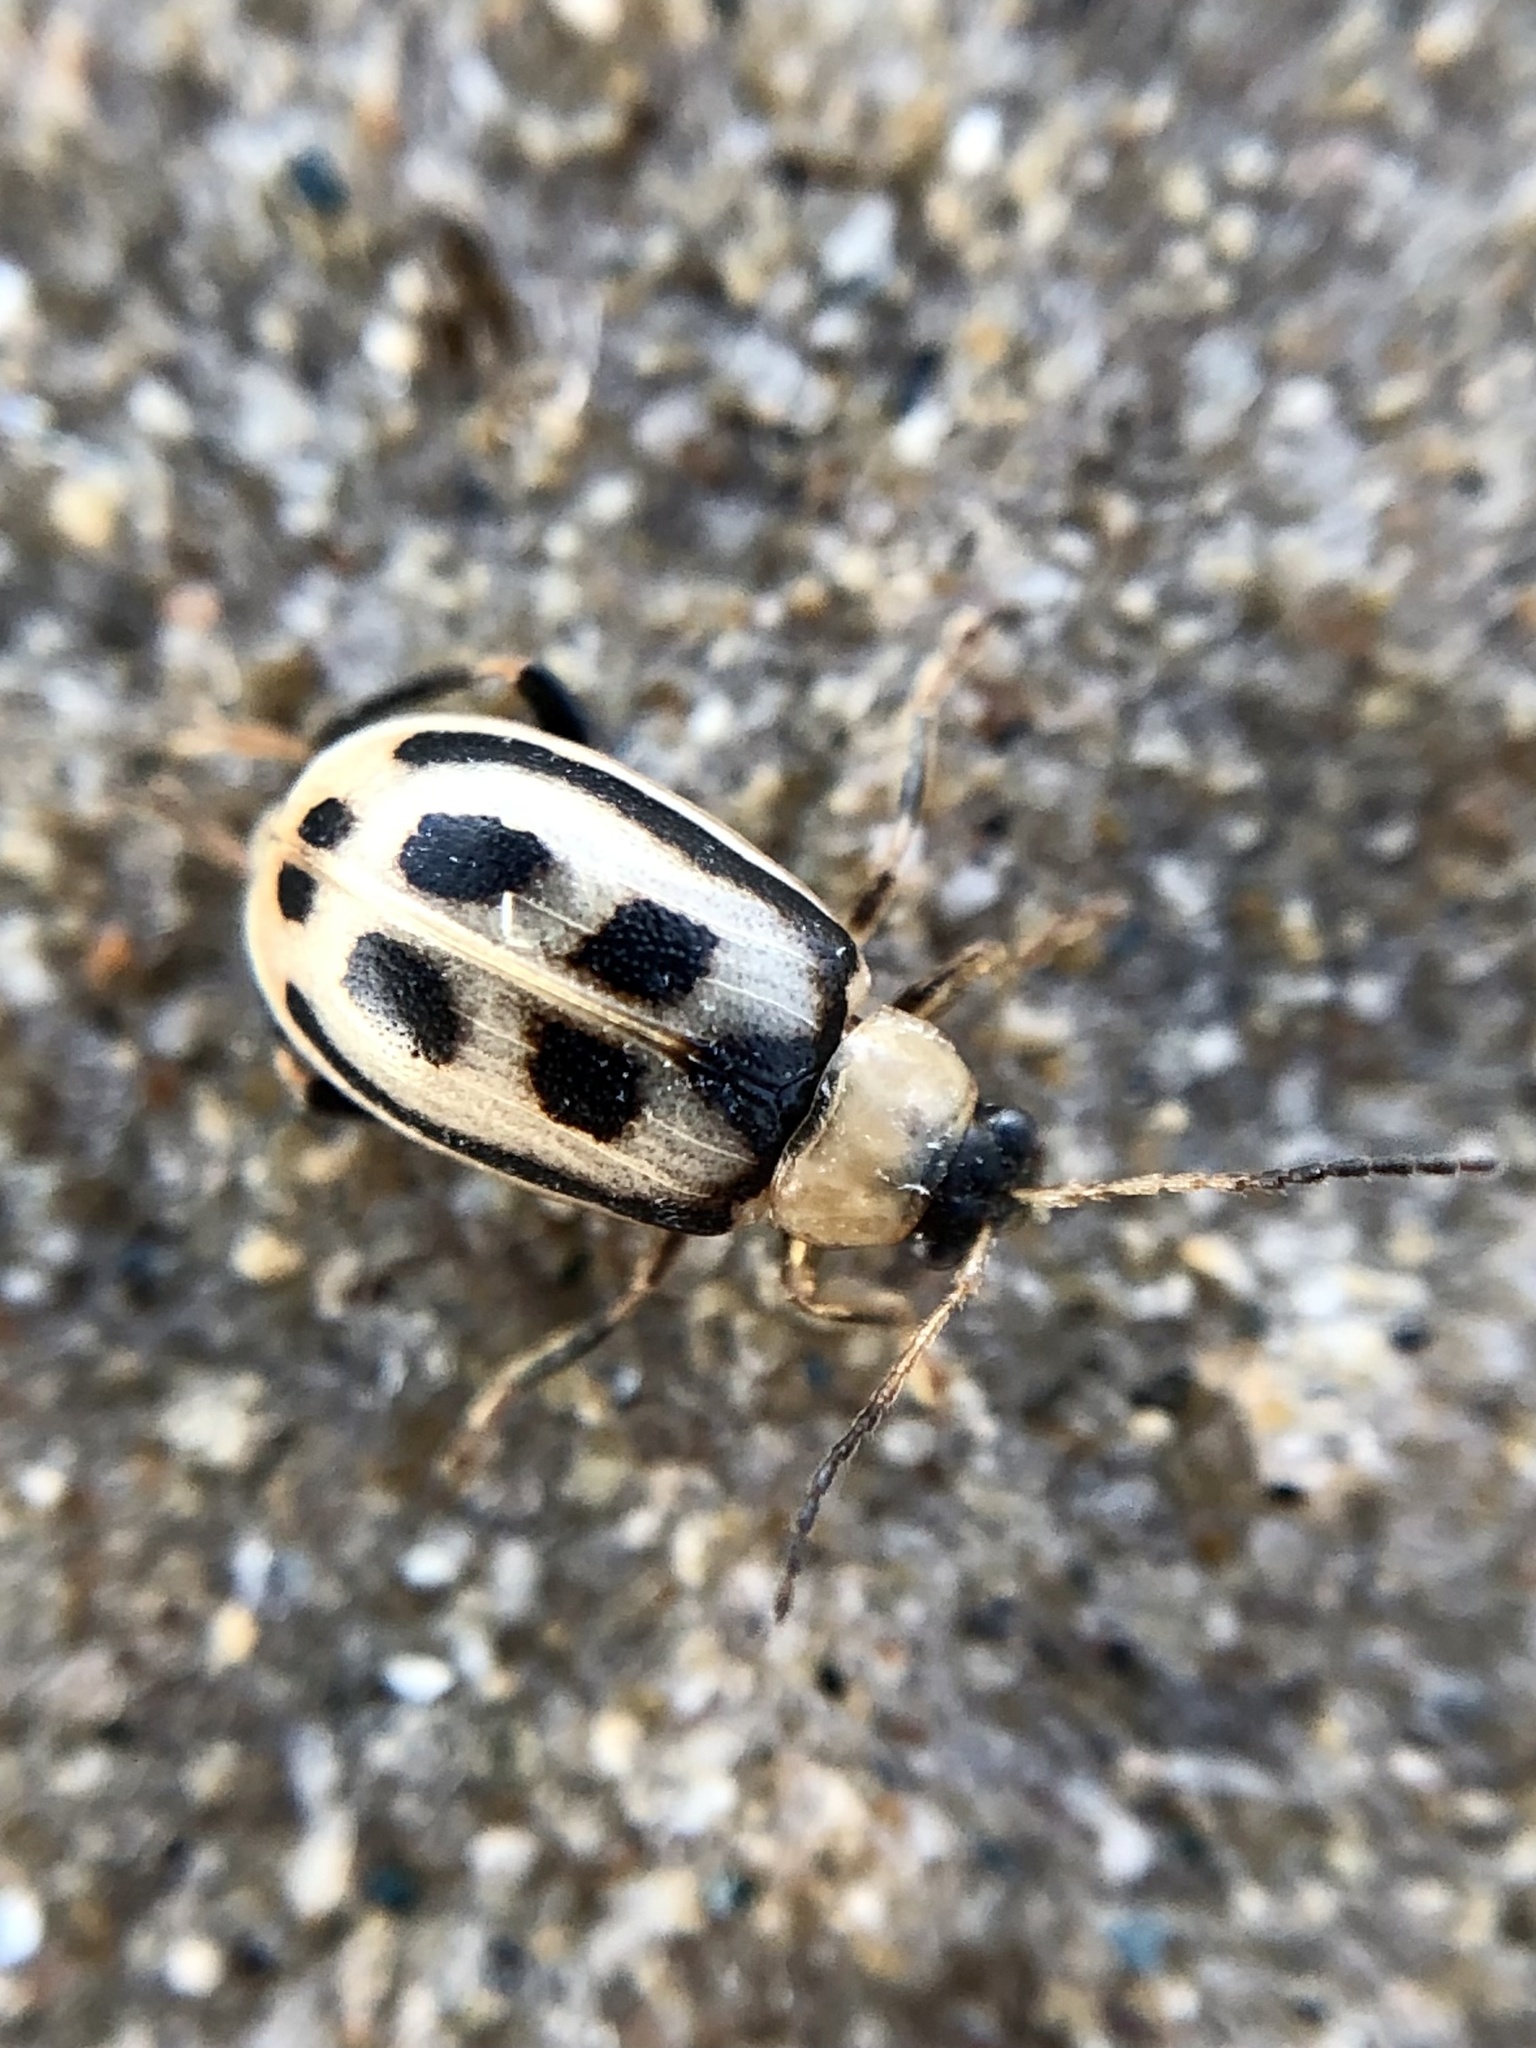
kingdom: Animalia
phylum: Arthropoda
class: Insecta
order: Coleoptera
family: Chrysomelidae
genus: Cerotoma
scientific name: Cerotoma trifurcata
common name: Bean leaf beetle
